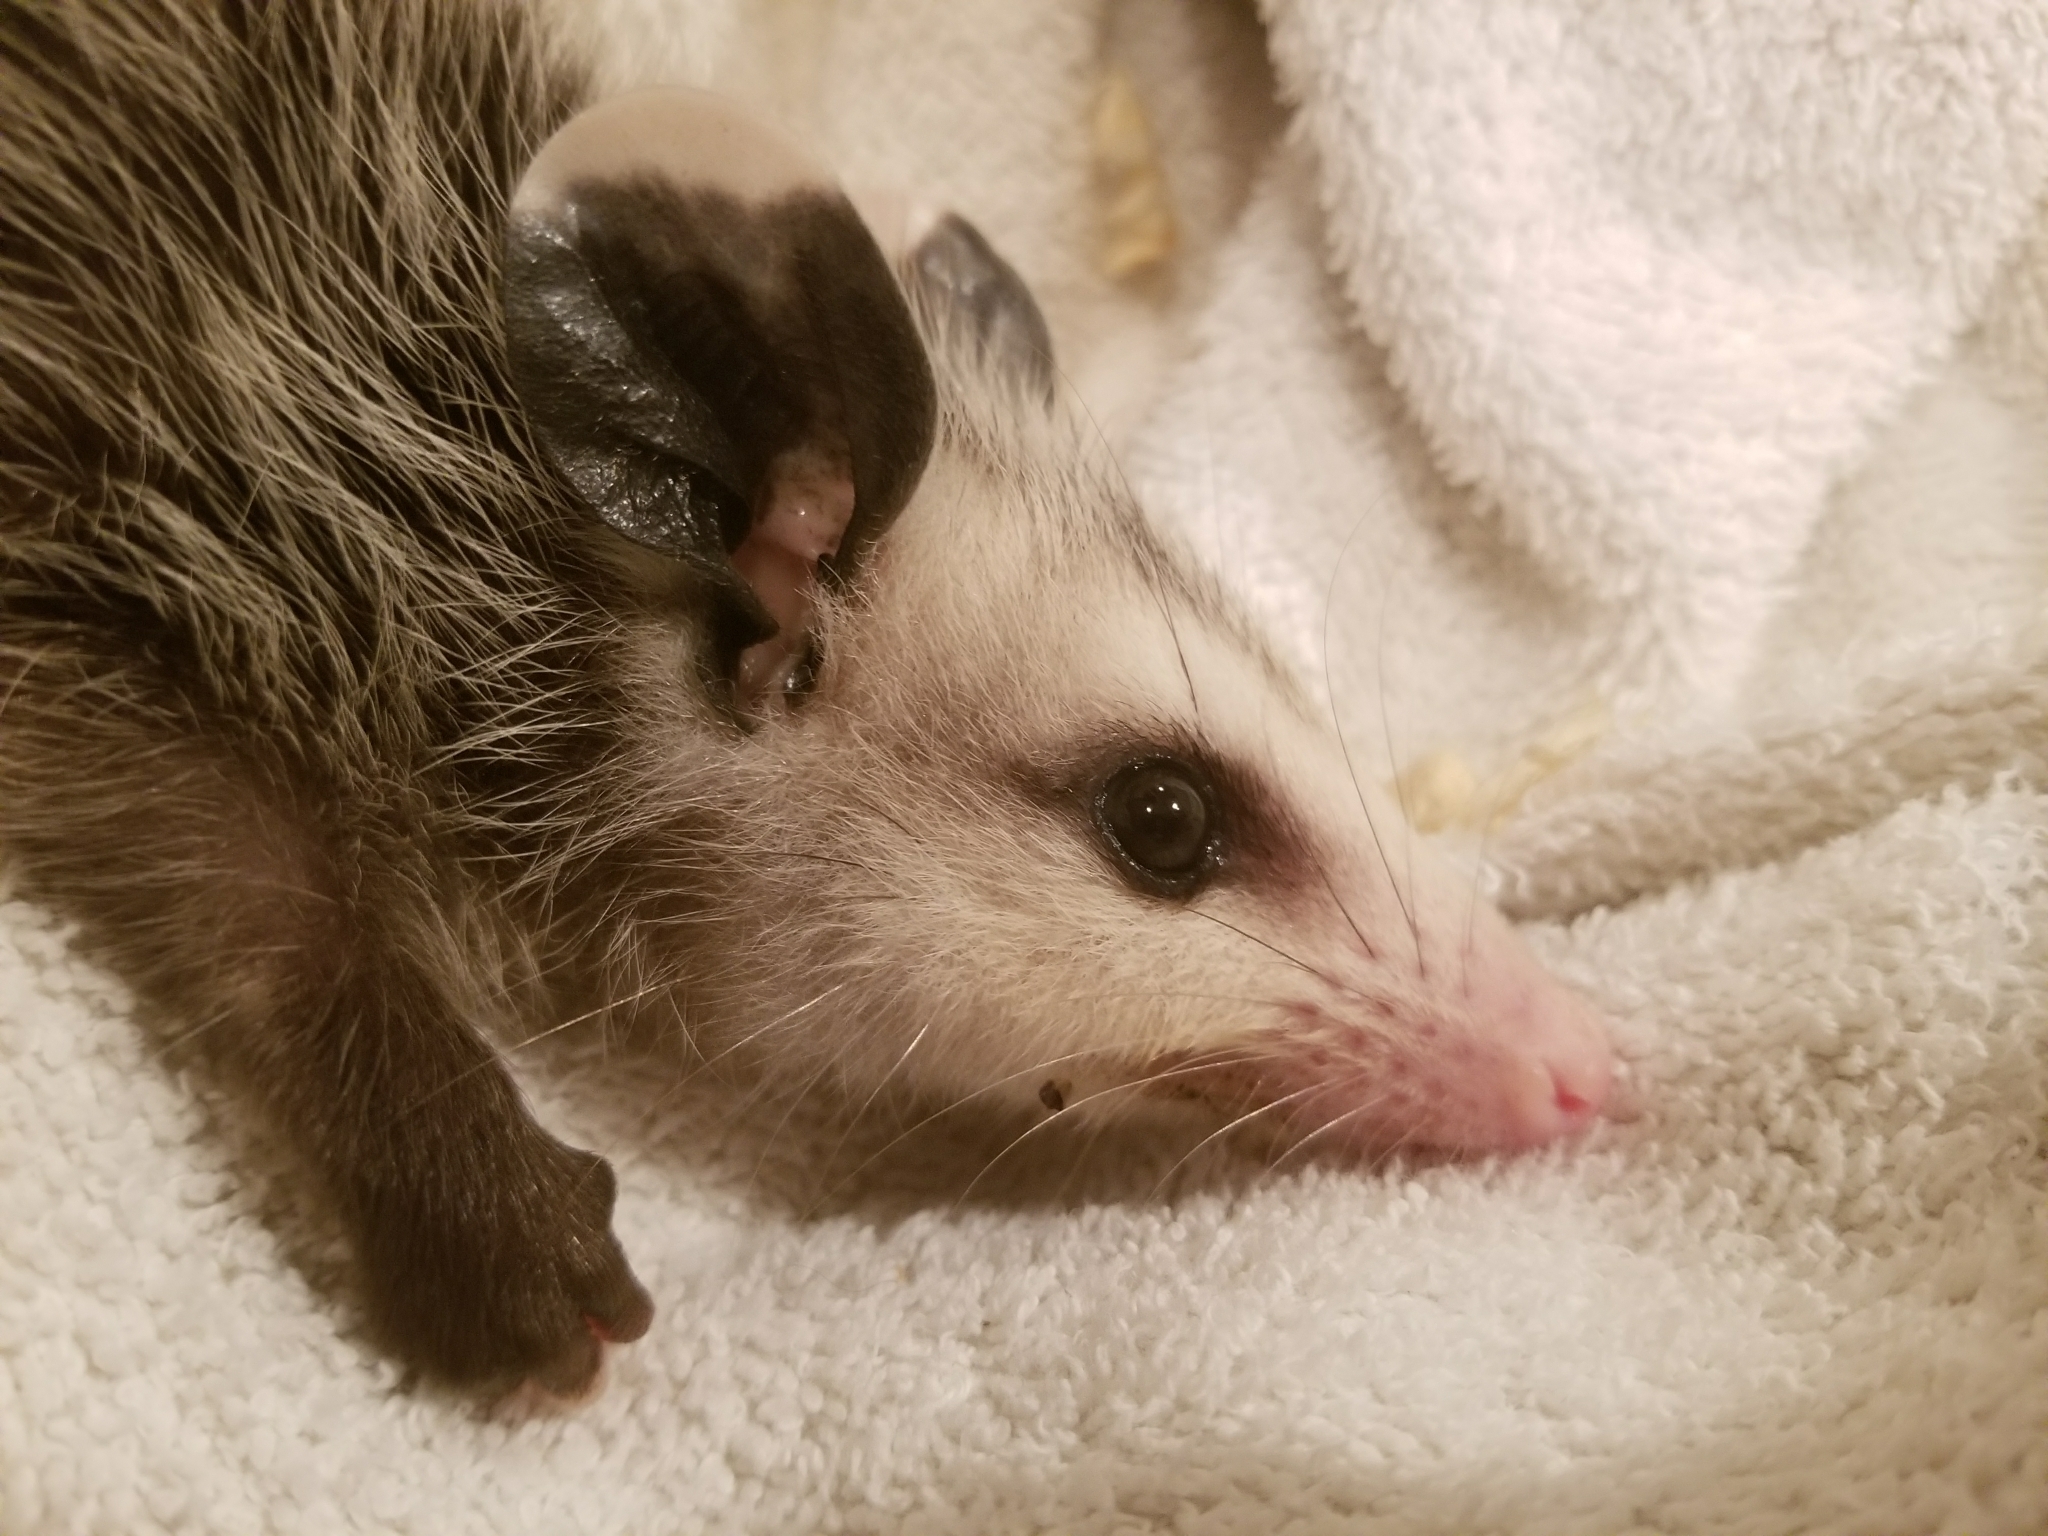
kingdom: Animalia
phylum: Chordata
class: Mammalia
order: Didelphimorphia
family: Didelphidae
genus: Didelphis
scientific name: Didelphis virginiana
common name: Virginia opossum
